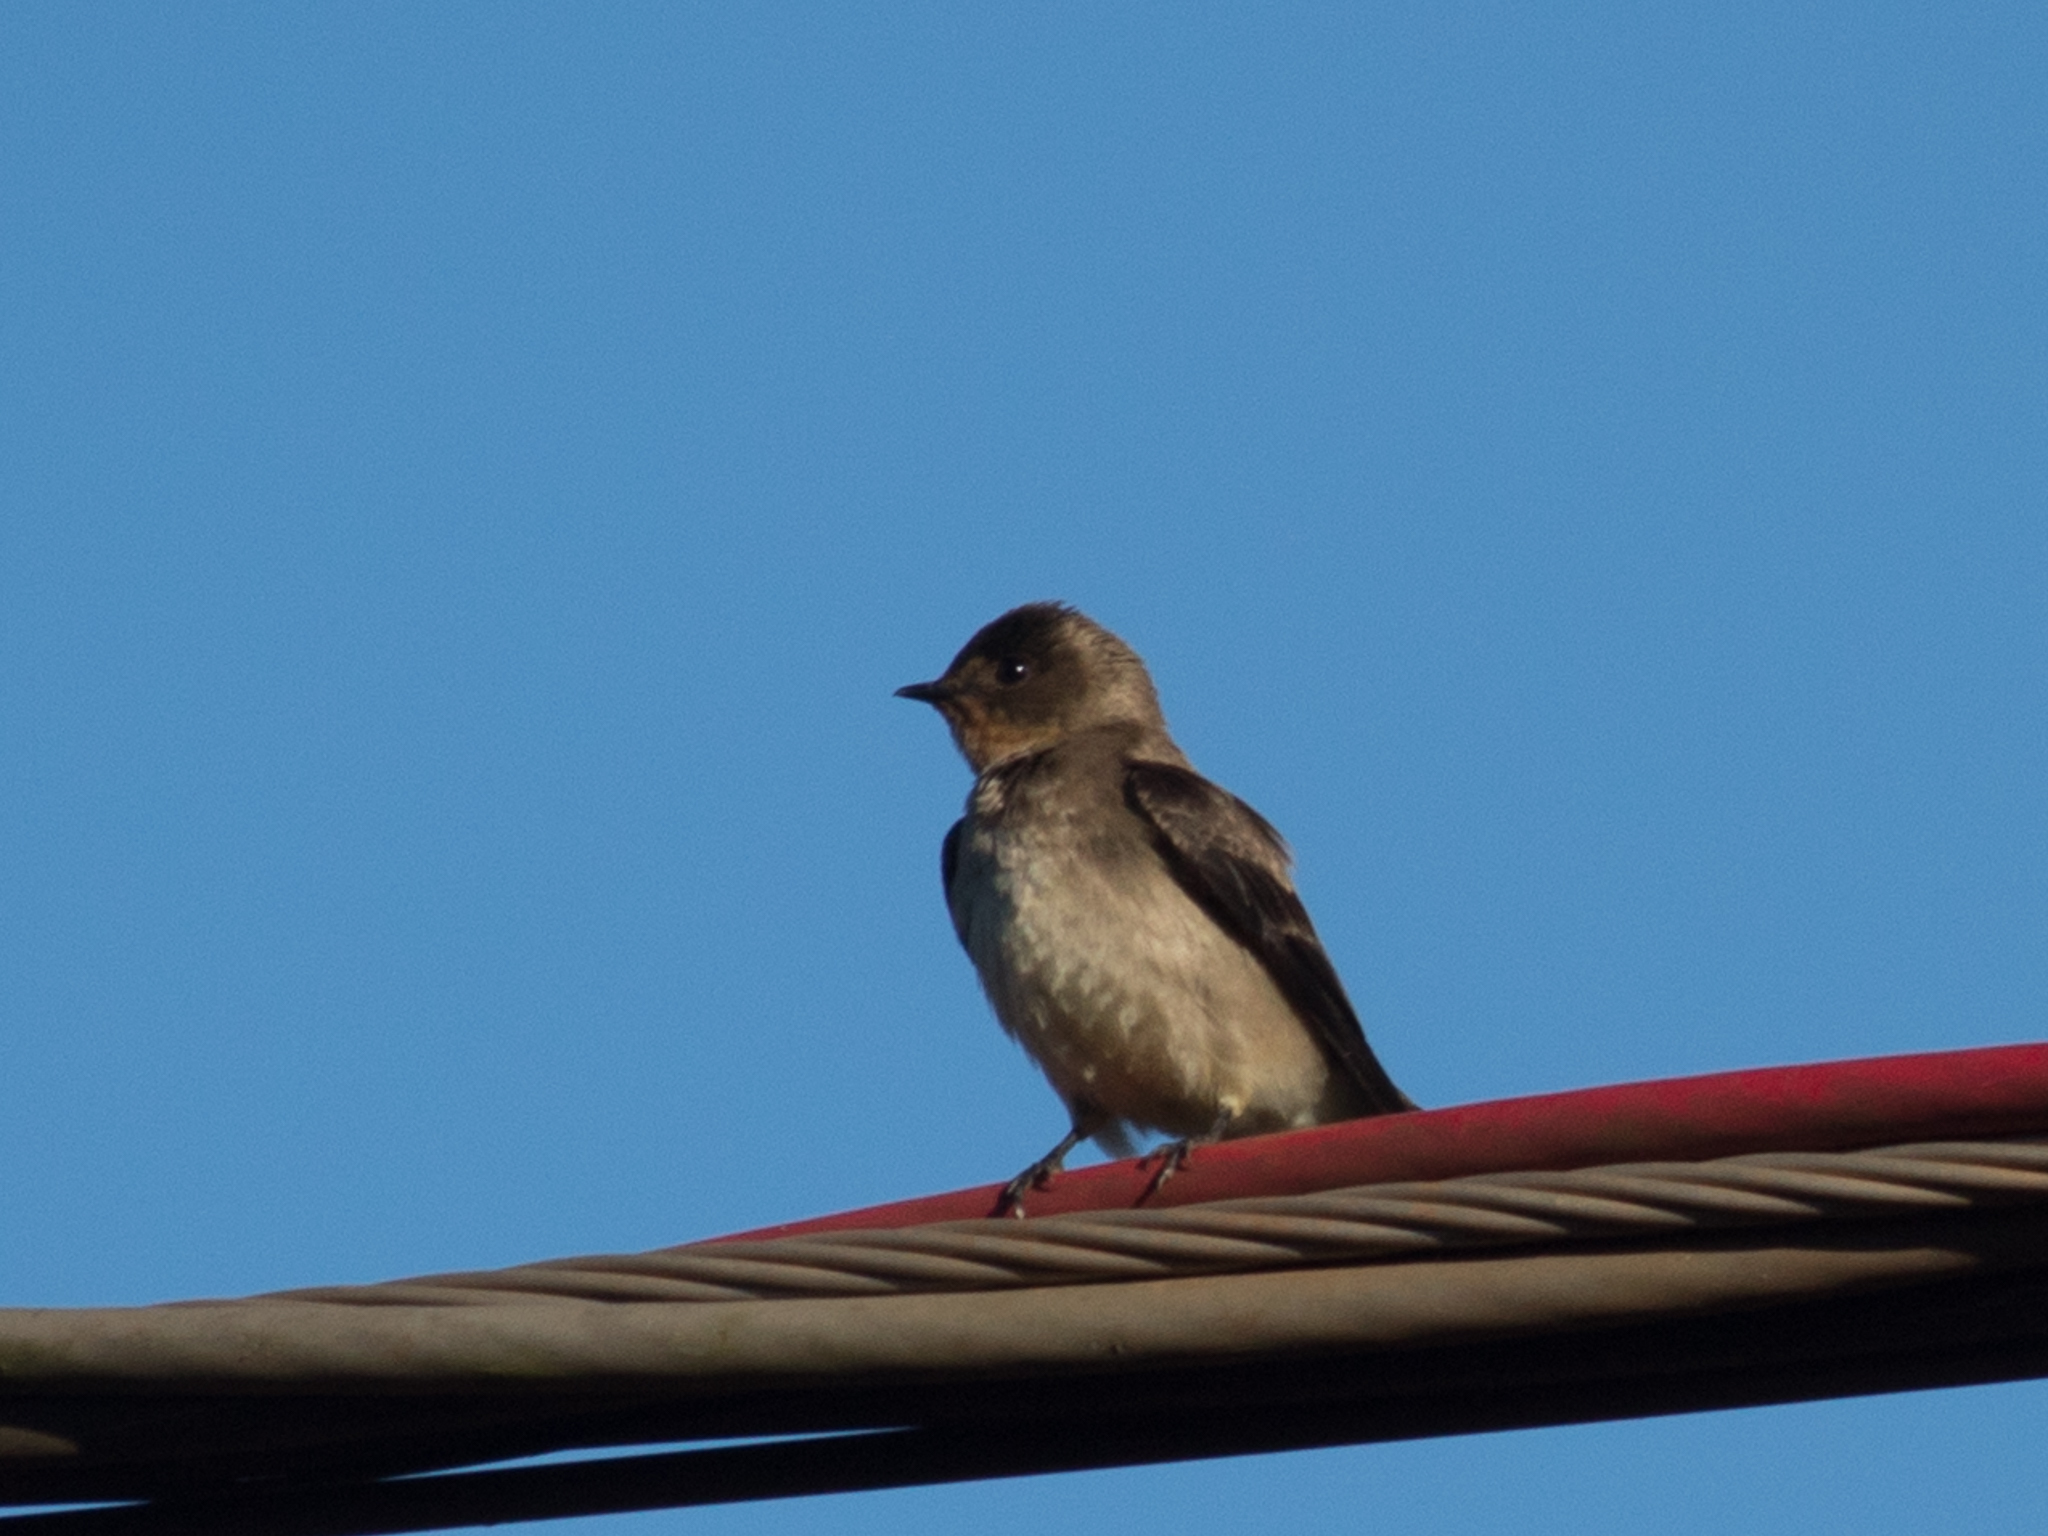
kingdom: Animalia
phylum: Chordata
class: Aves
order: Passeriformes
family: Hirundinidae
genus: Stelgidopteryx
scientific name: Stelgidopteryx ruficollis
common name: Southern rough-winged swallow
